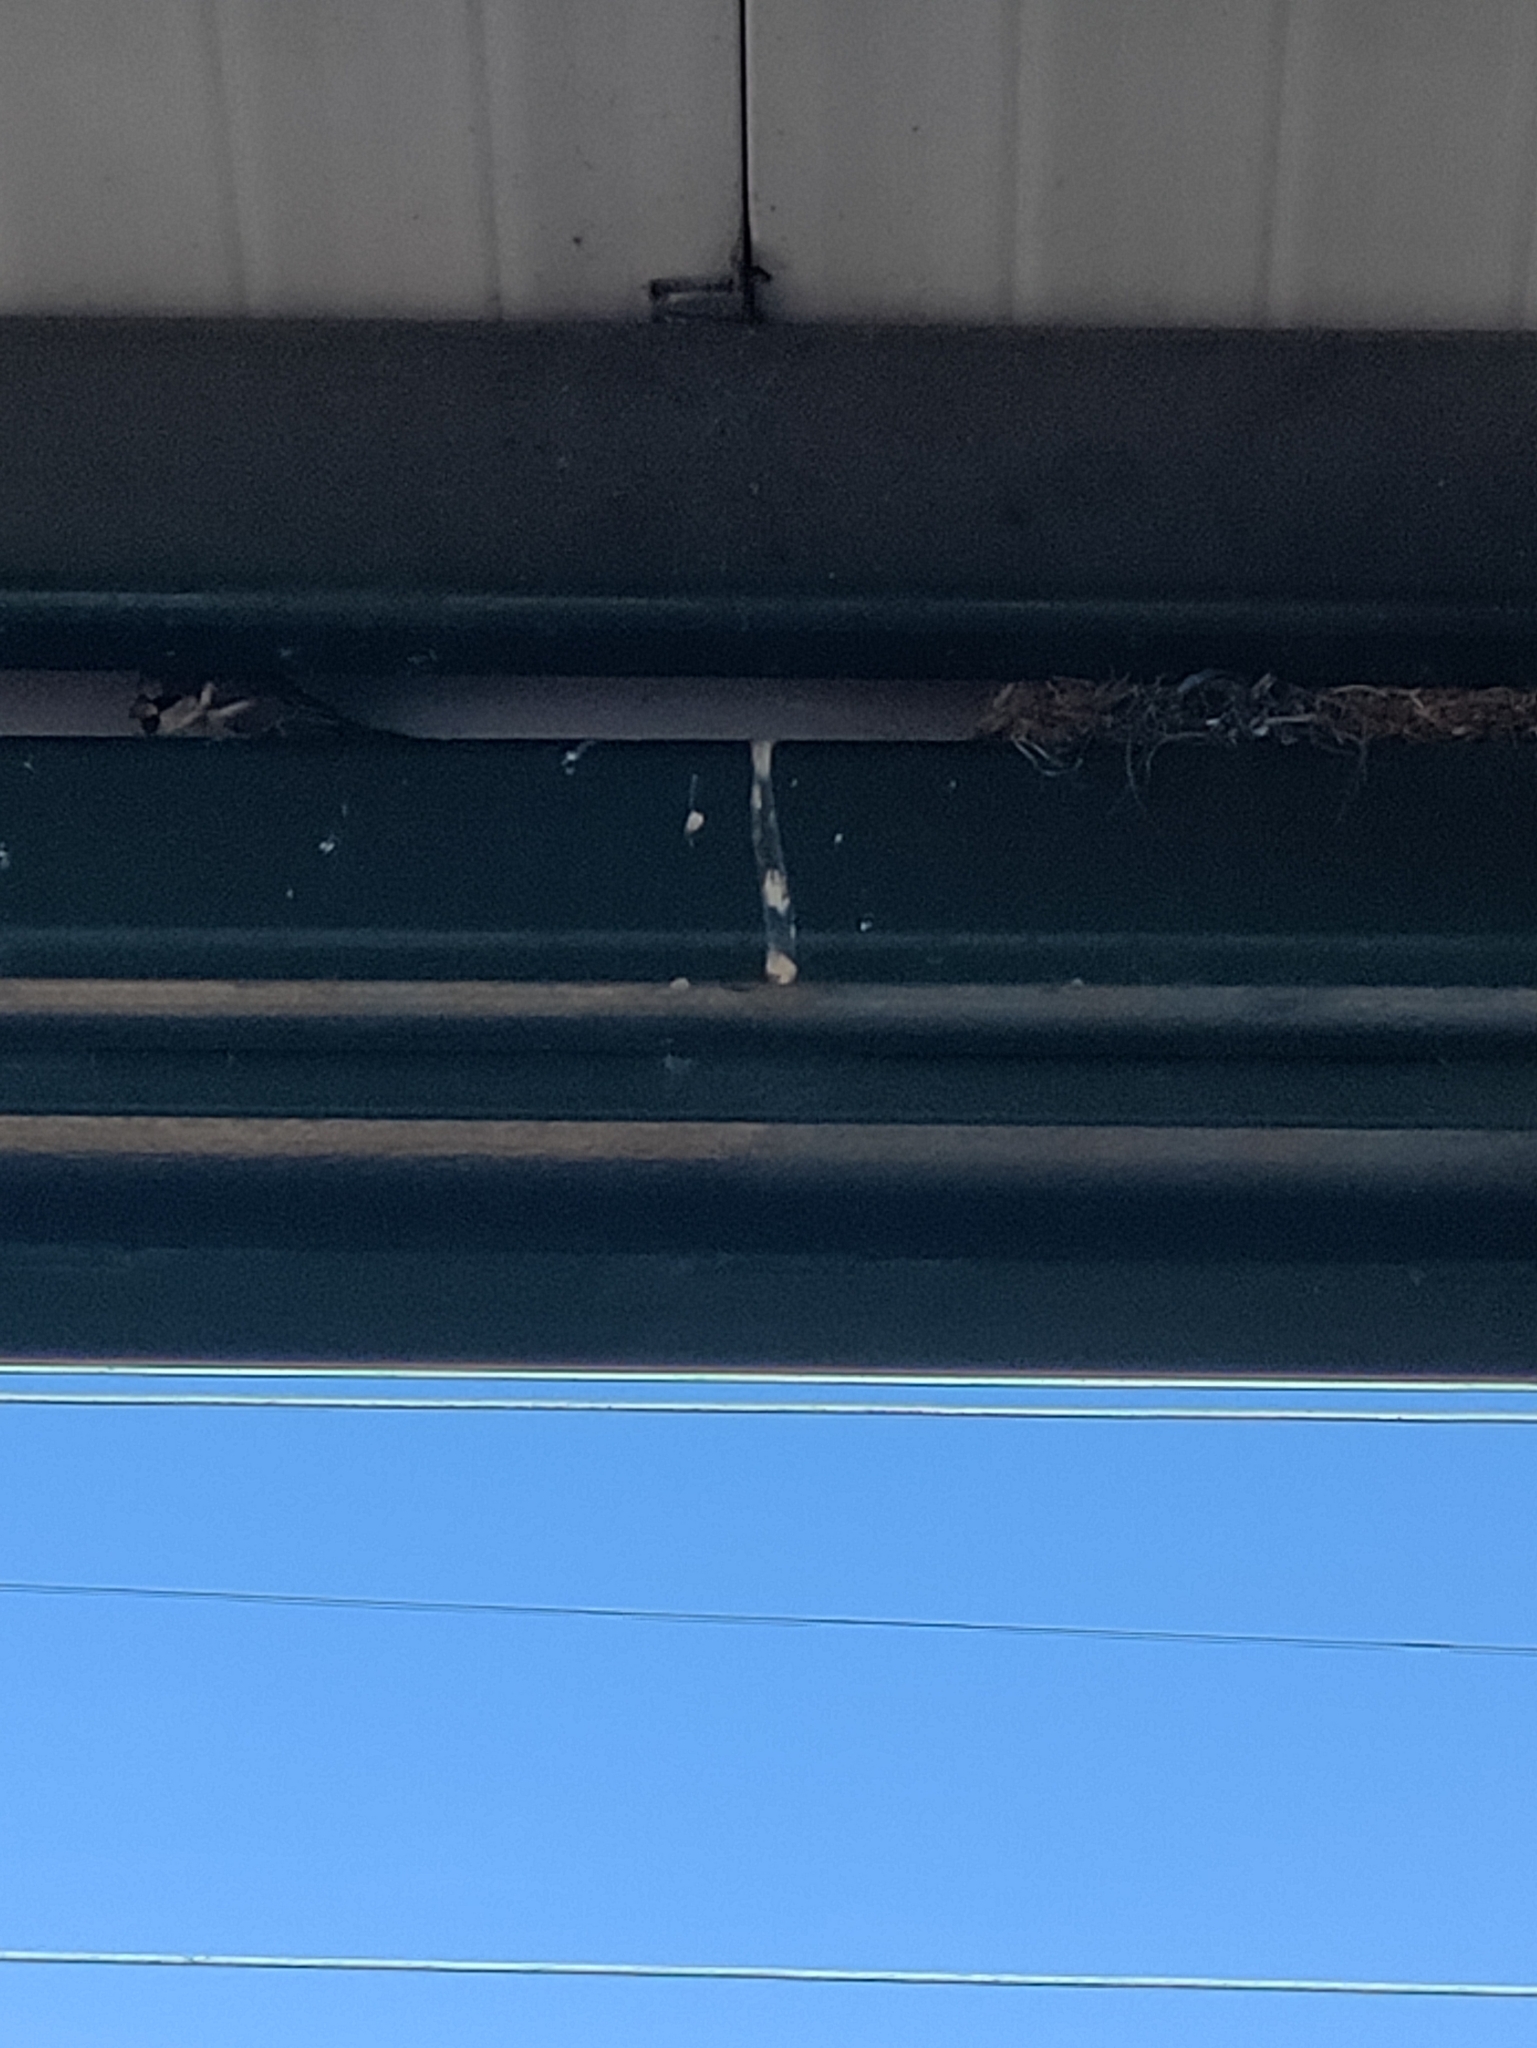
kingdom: Animalia
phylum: Chordata
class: Aves
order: Passeriformes
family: Passeridae
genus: Passer
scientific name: Passer domesticus
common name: House sparrow
